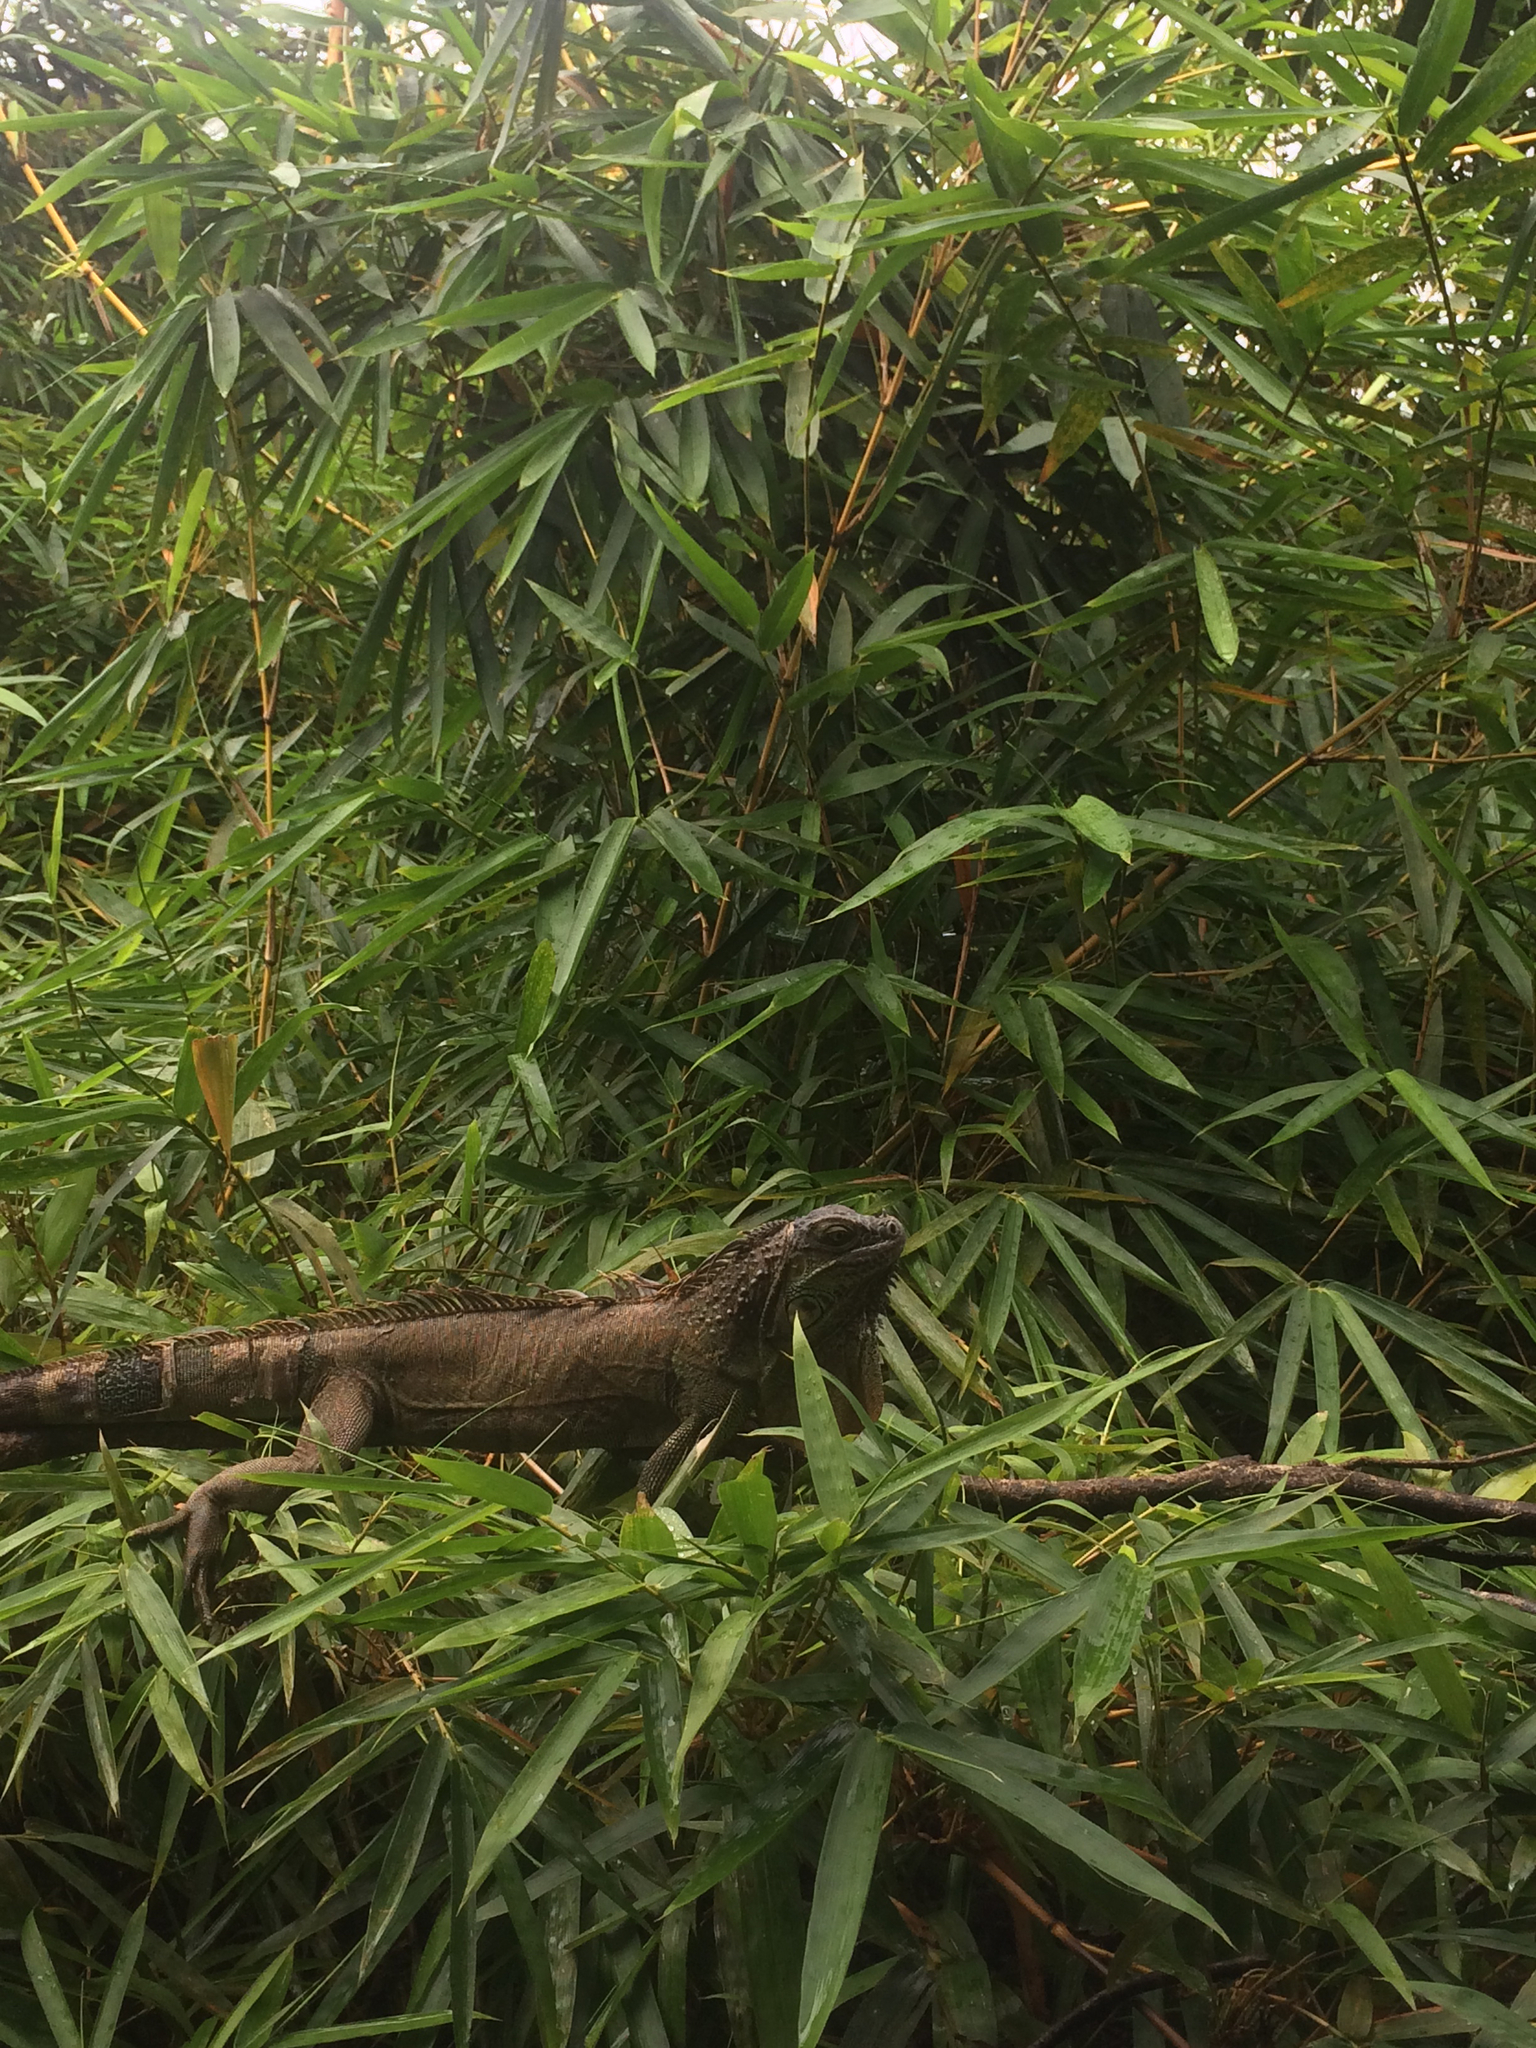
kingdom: Animalia
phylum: Chordata
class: Squamata
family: Iguanidae
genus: Iguana
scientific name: Iguana iguana
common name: Green iguana
